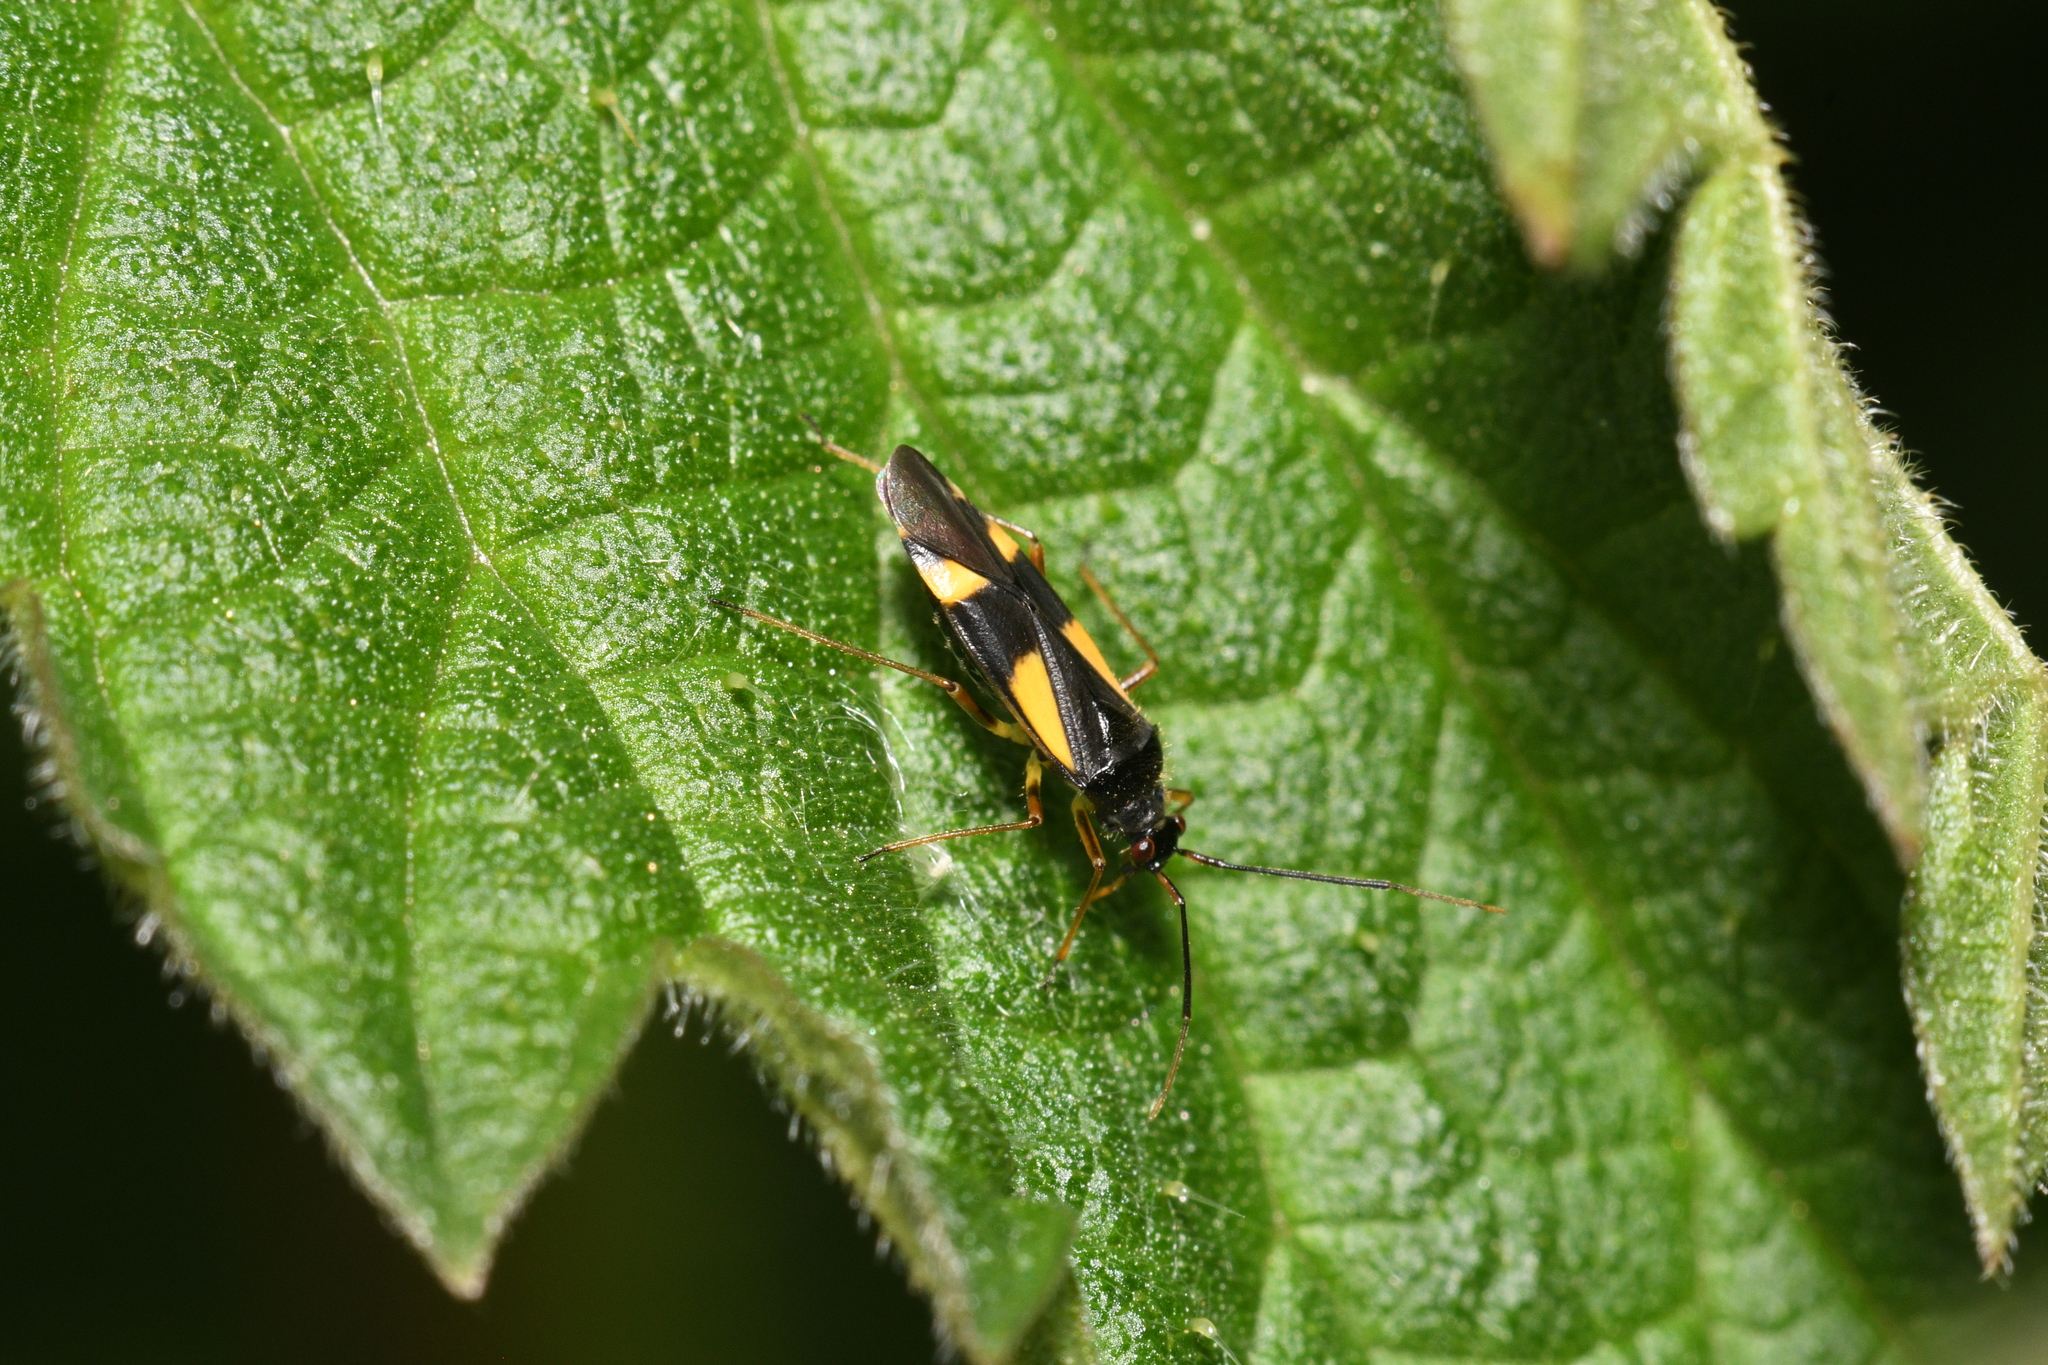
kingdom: Animalia
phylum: Arthropoda
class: Insecta
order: Hemiptera
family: Miridae
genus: Dryophilocoris
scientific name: Dryophilocoris flavoquadrimaculatus
